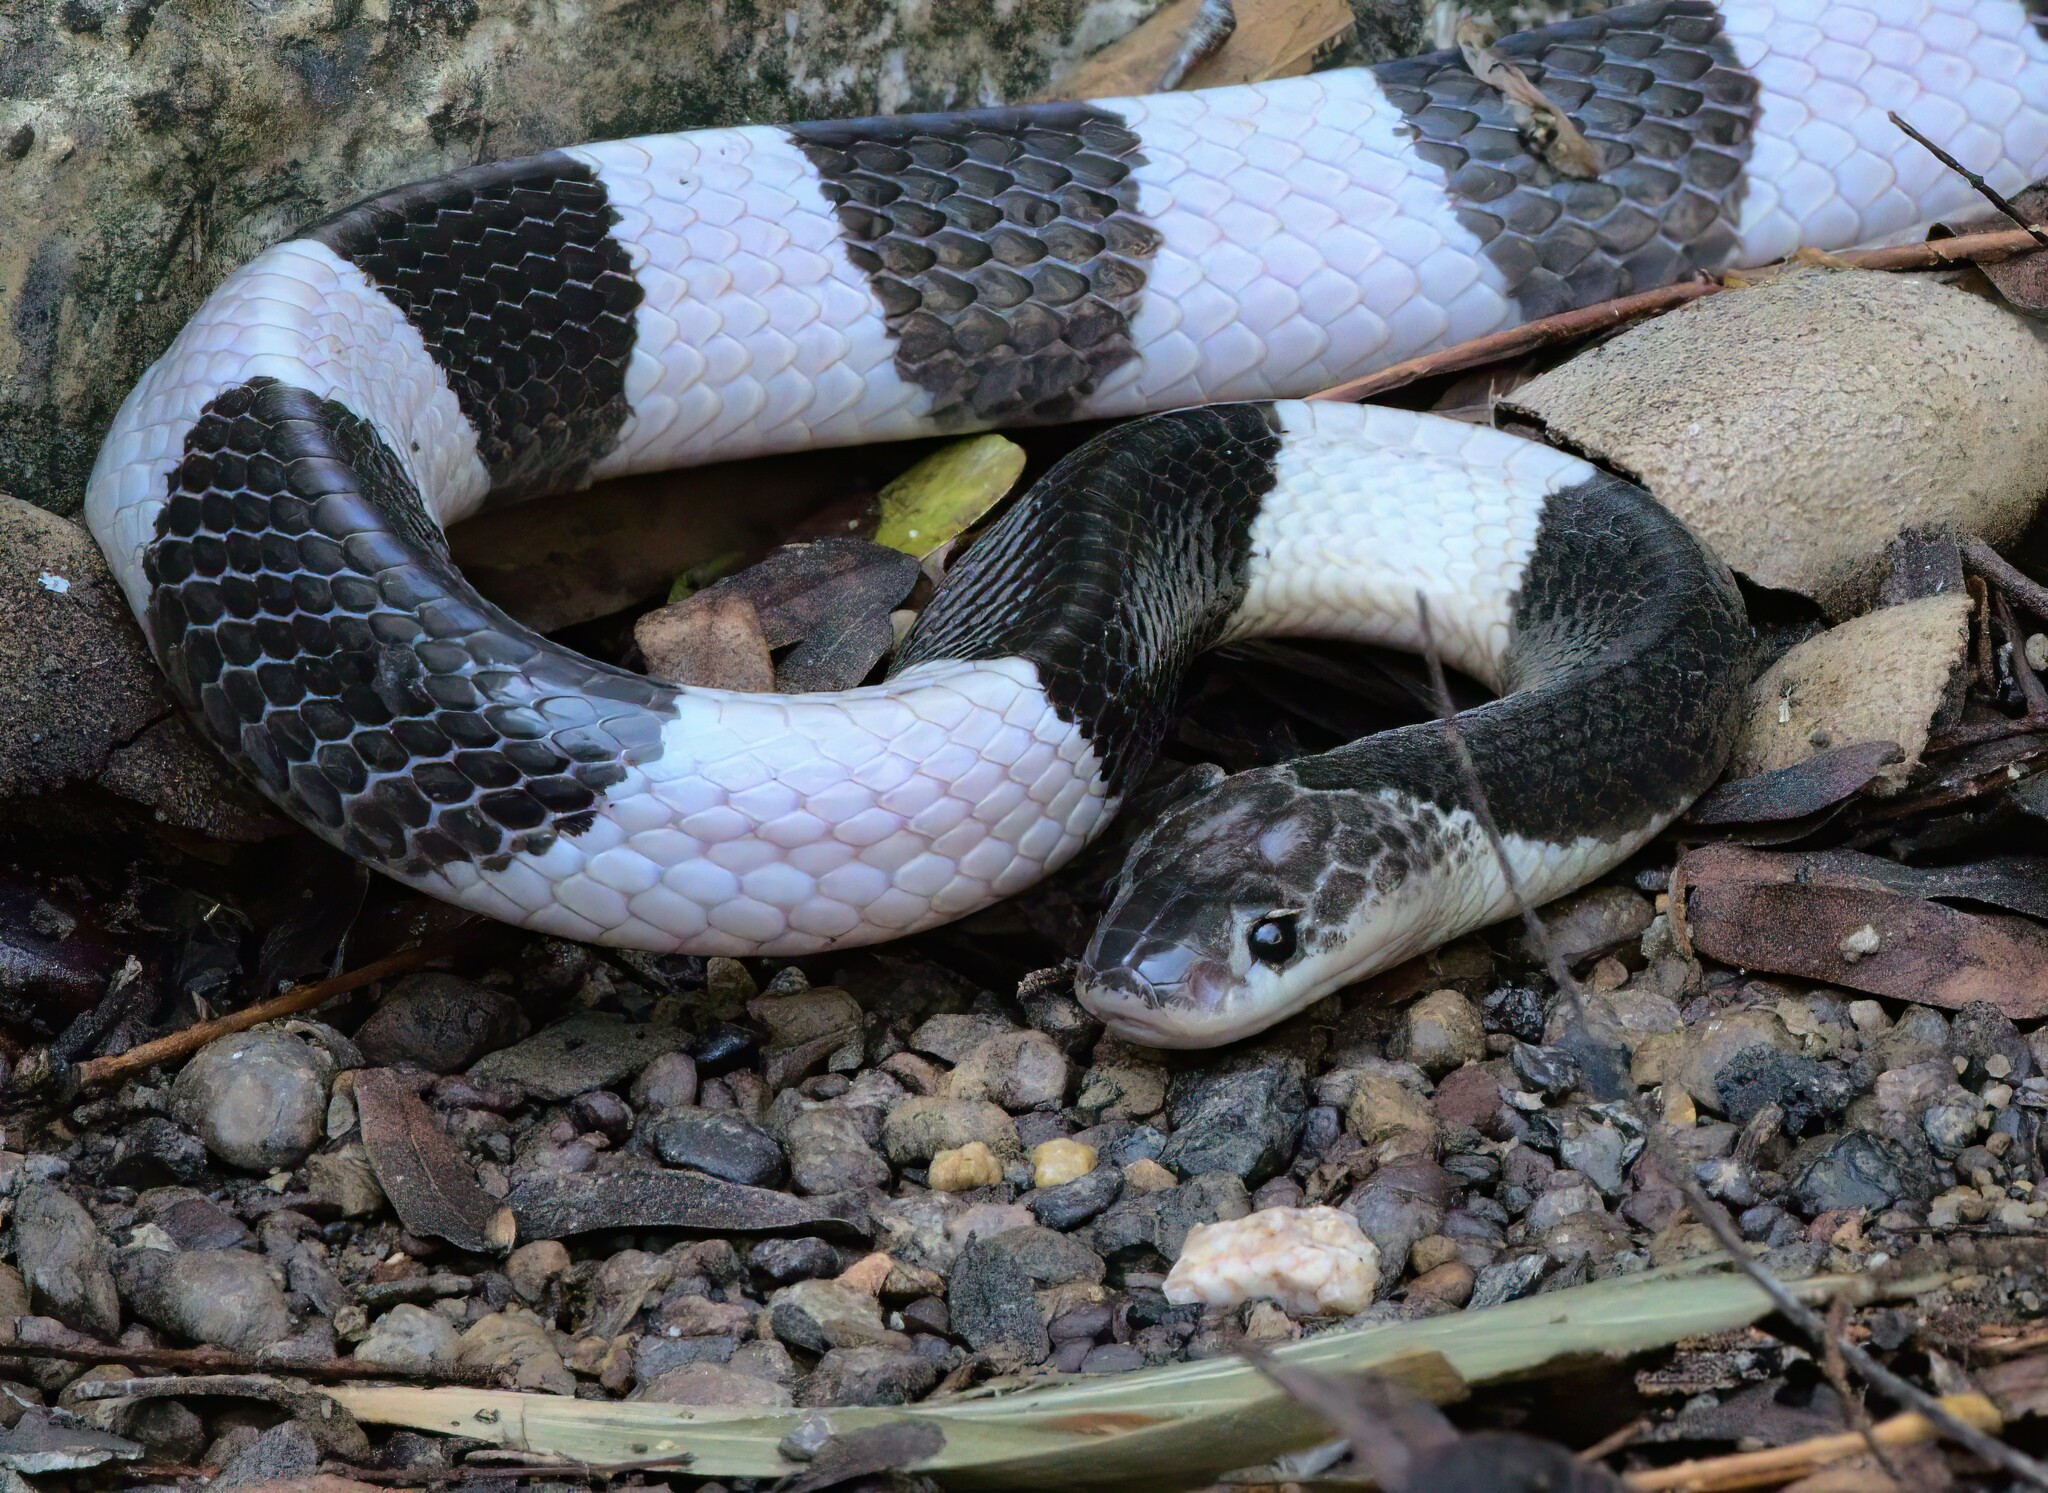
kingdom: Animalia
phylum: Chordata
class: Squamata
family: Elapidae
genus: Bungarus
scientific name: Bungarus candidus
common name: Blue krait/malayan krait
